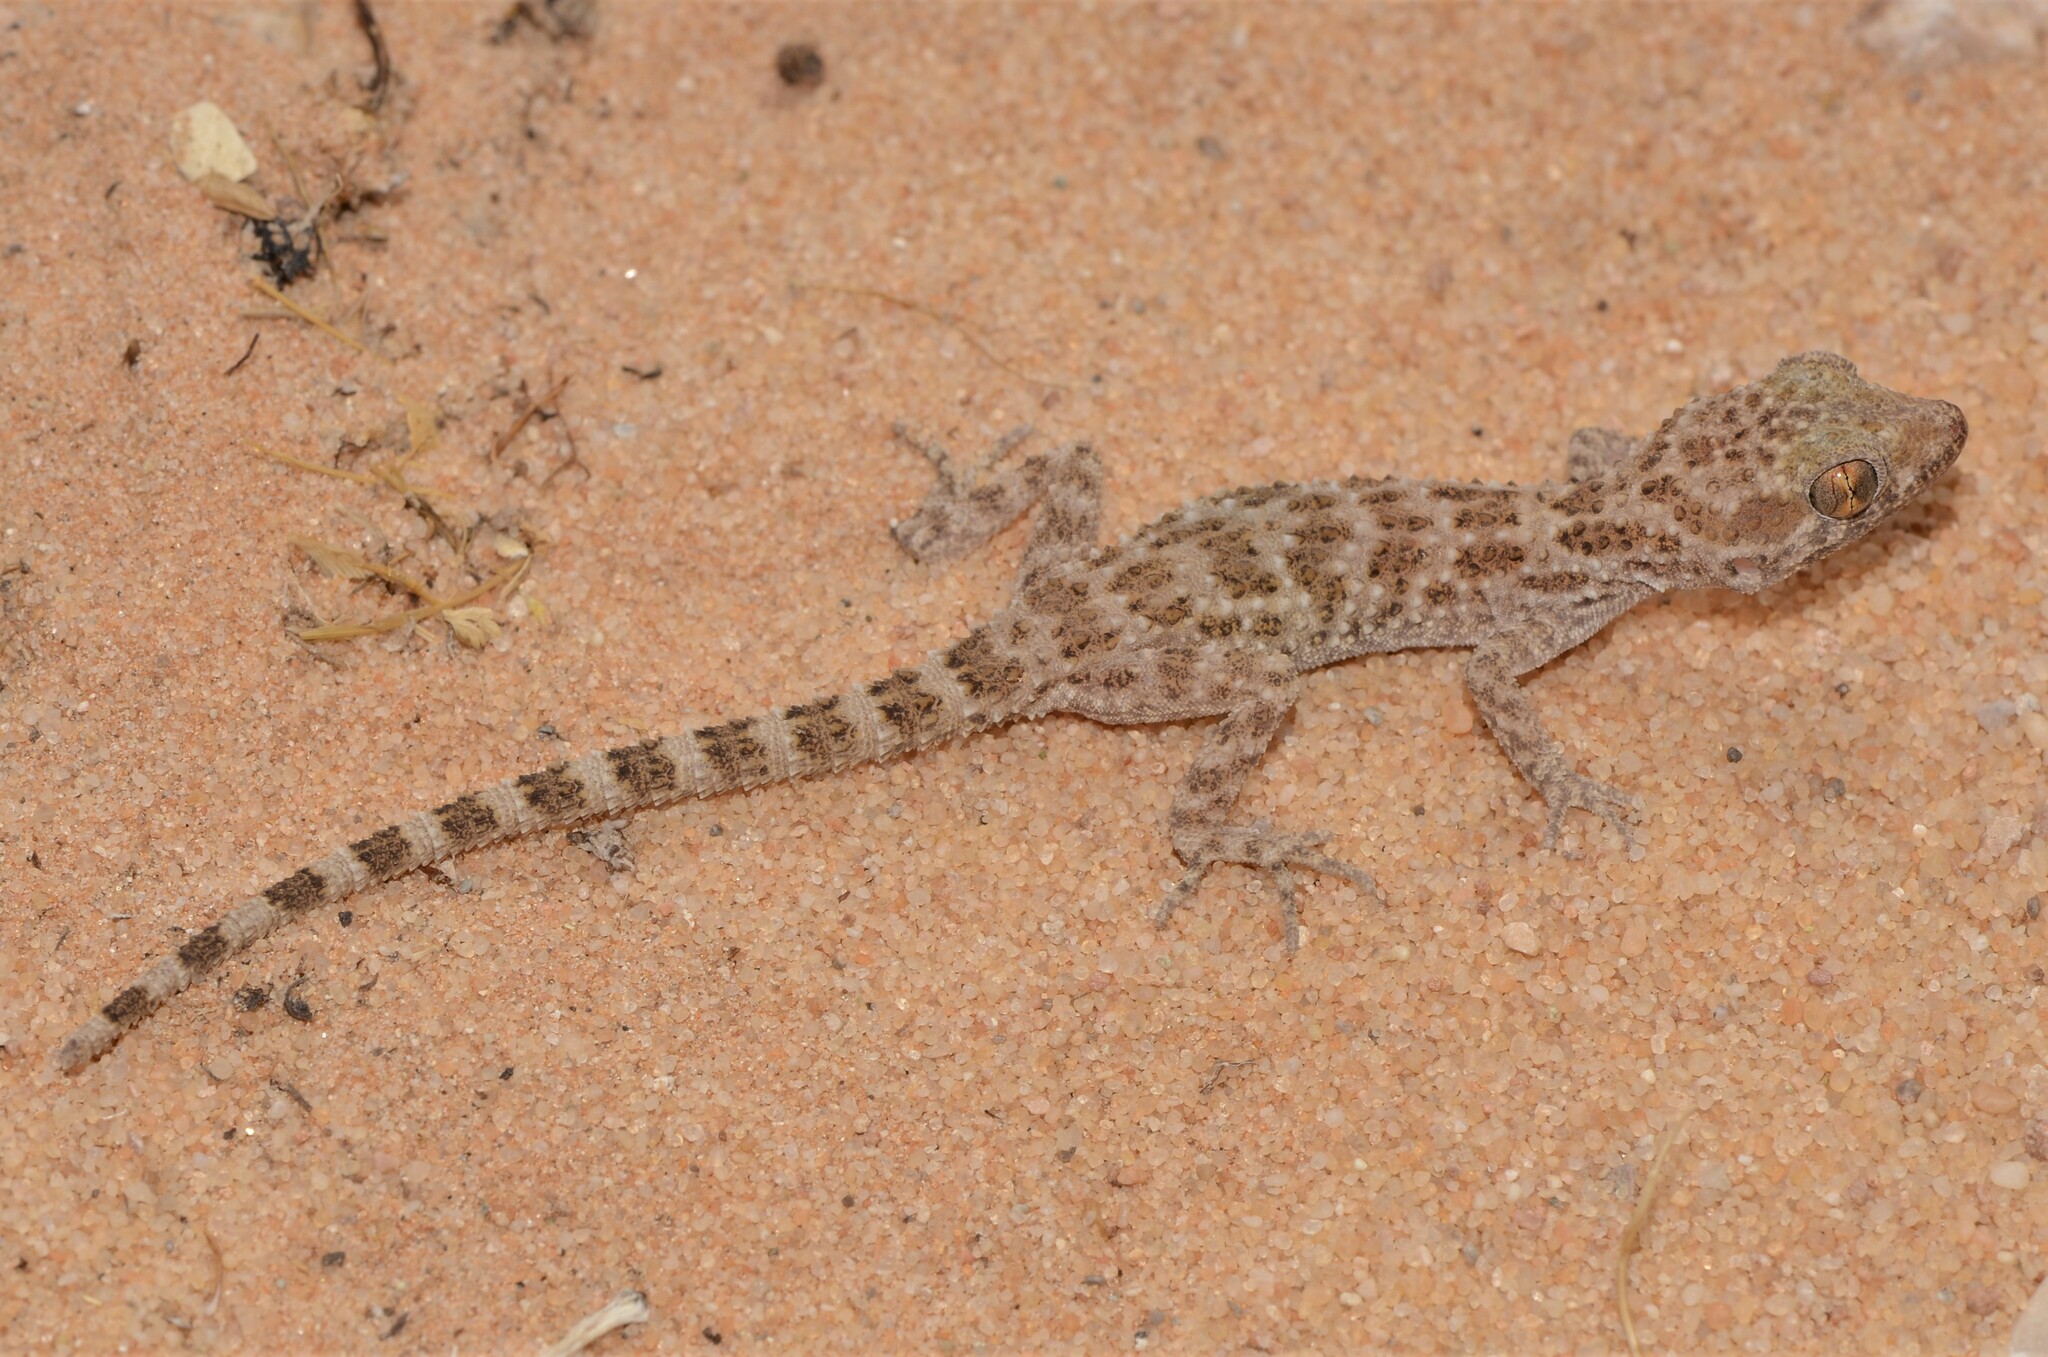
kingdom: Animalia
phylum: Chordata
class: Squamata
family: Gekkonidae
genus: Bunopus
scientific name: Bunopus tuberculatus
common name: Southern tuberculated gecko
